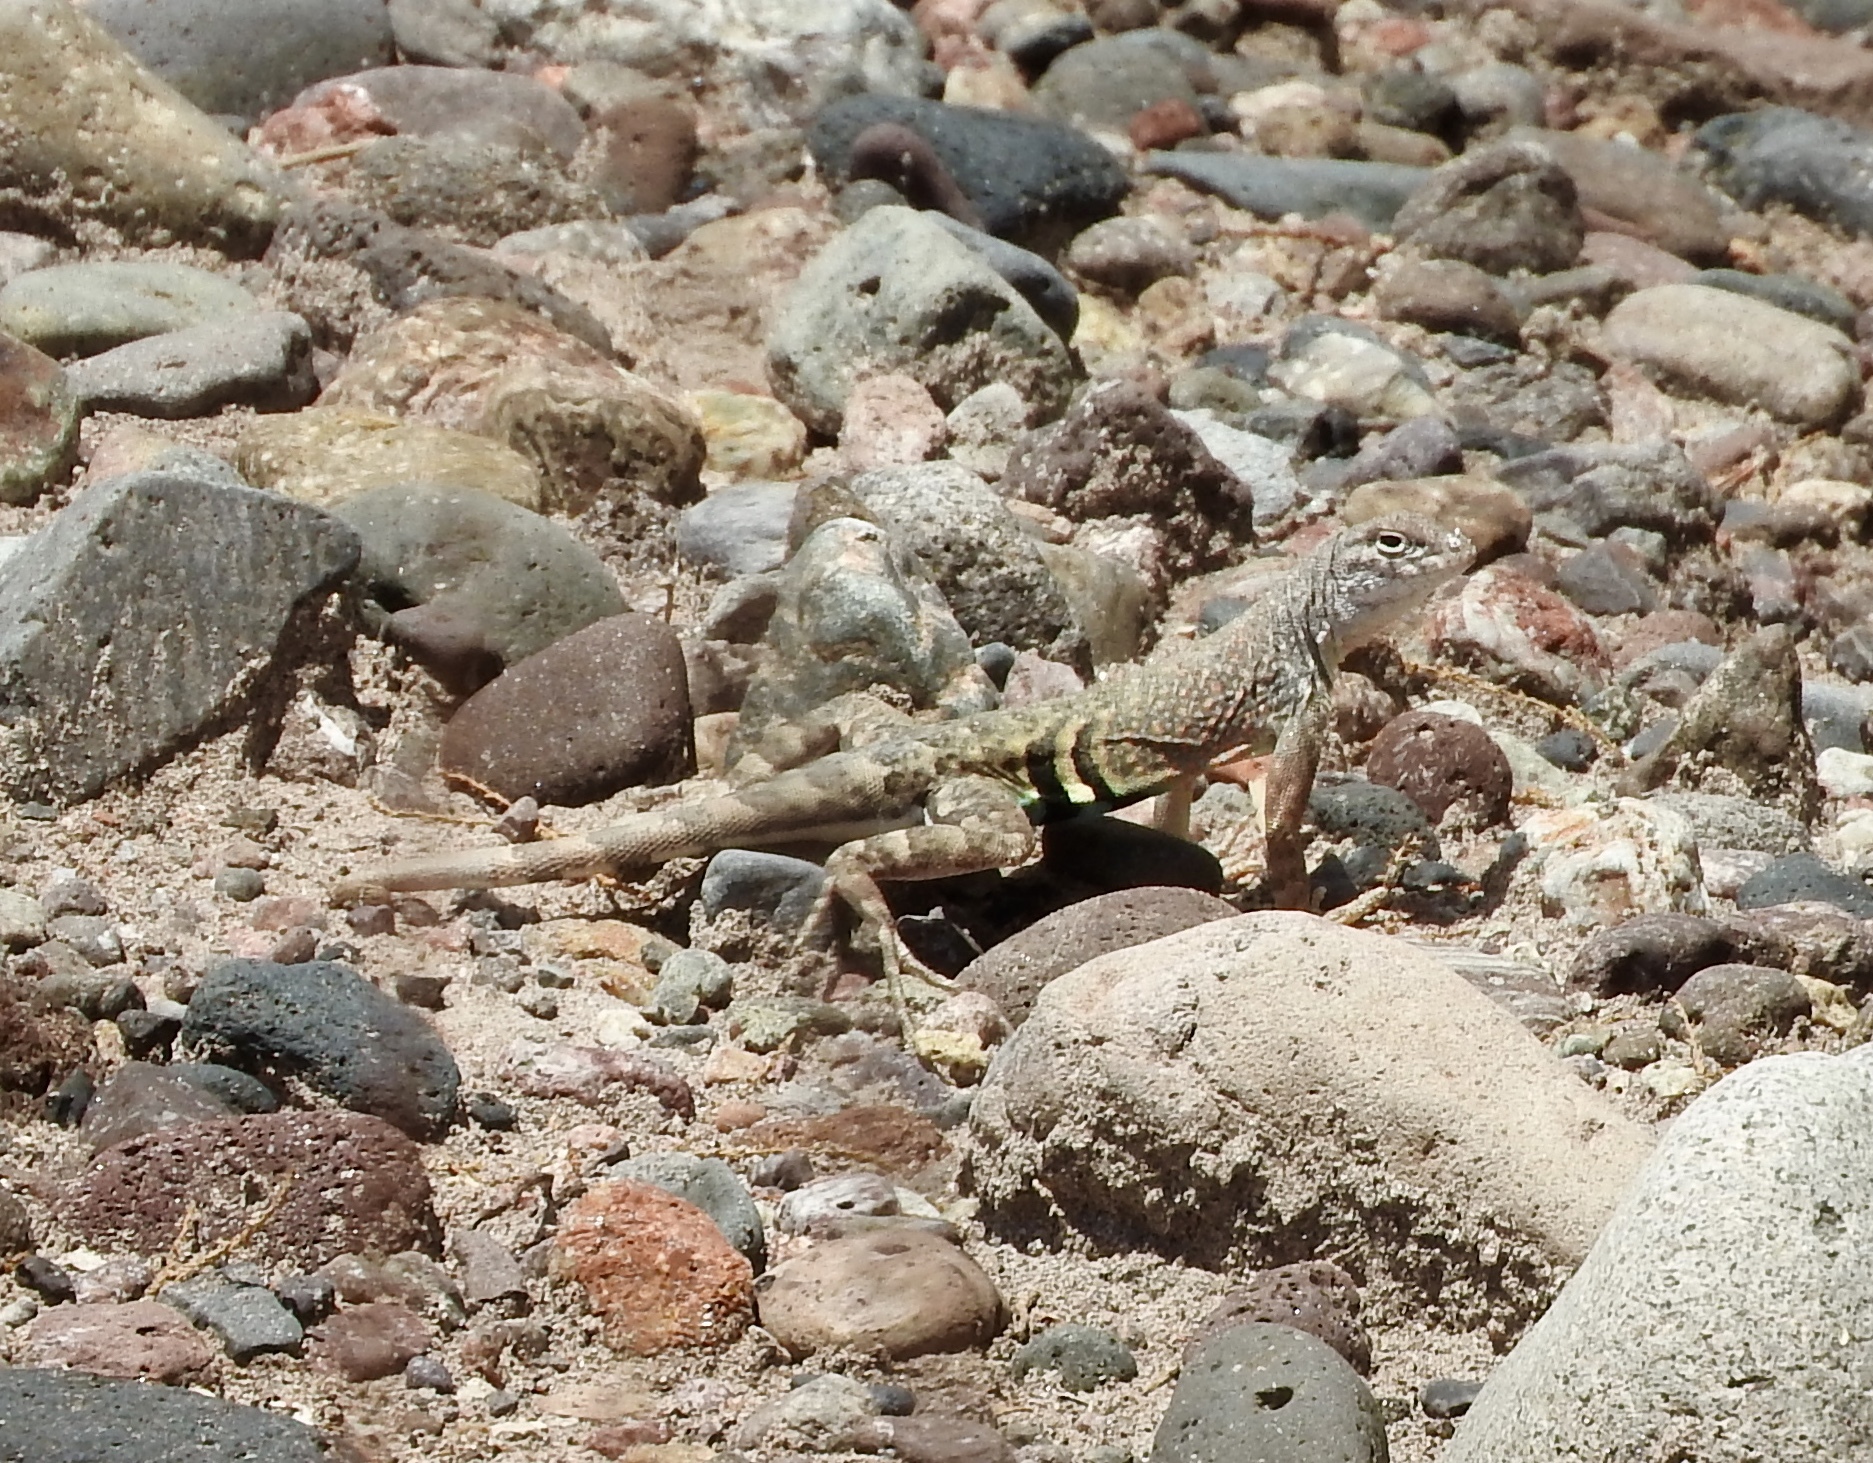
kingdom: Animalia
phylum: Chordata
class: Squamata
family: Phrynosomatidae
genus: Cophosaurus
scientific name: Cophosaurus texanus
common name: Greater earless lizard
